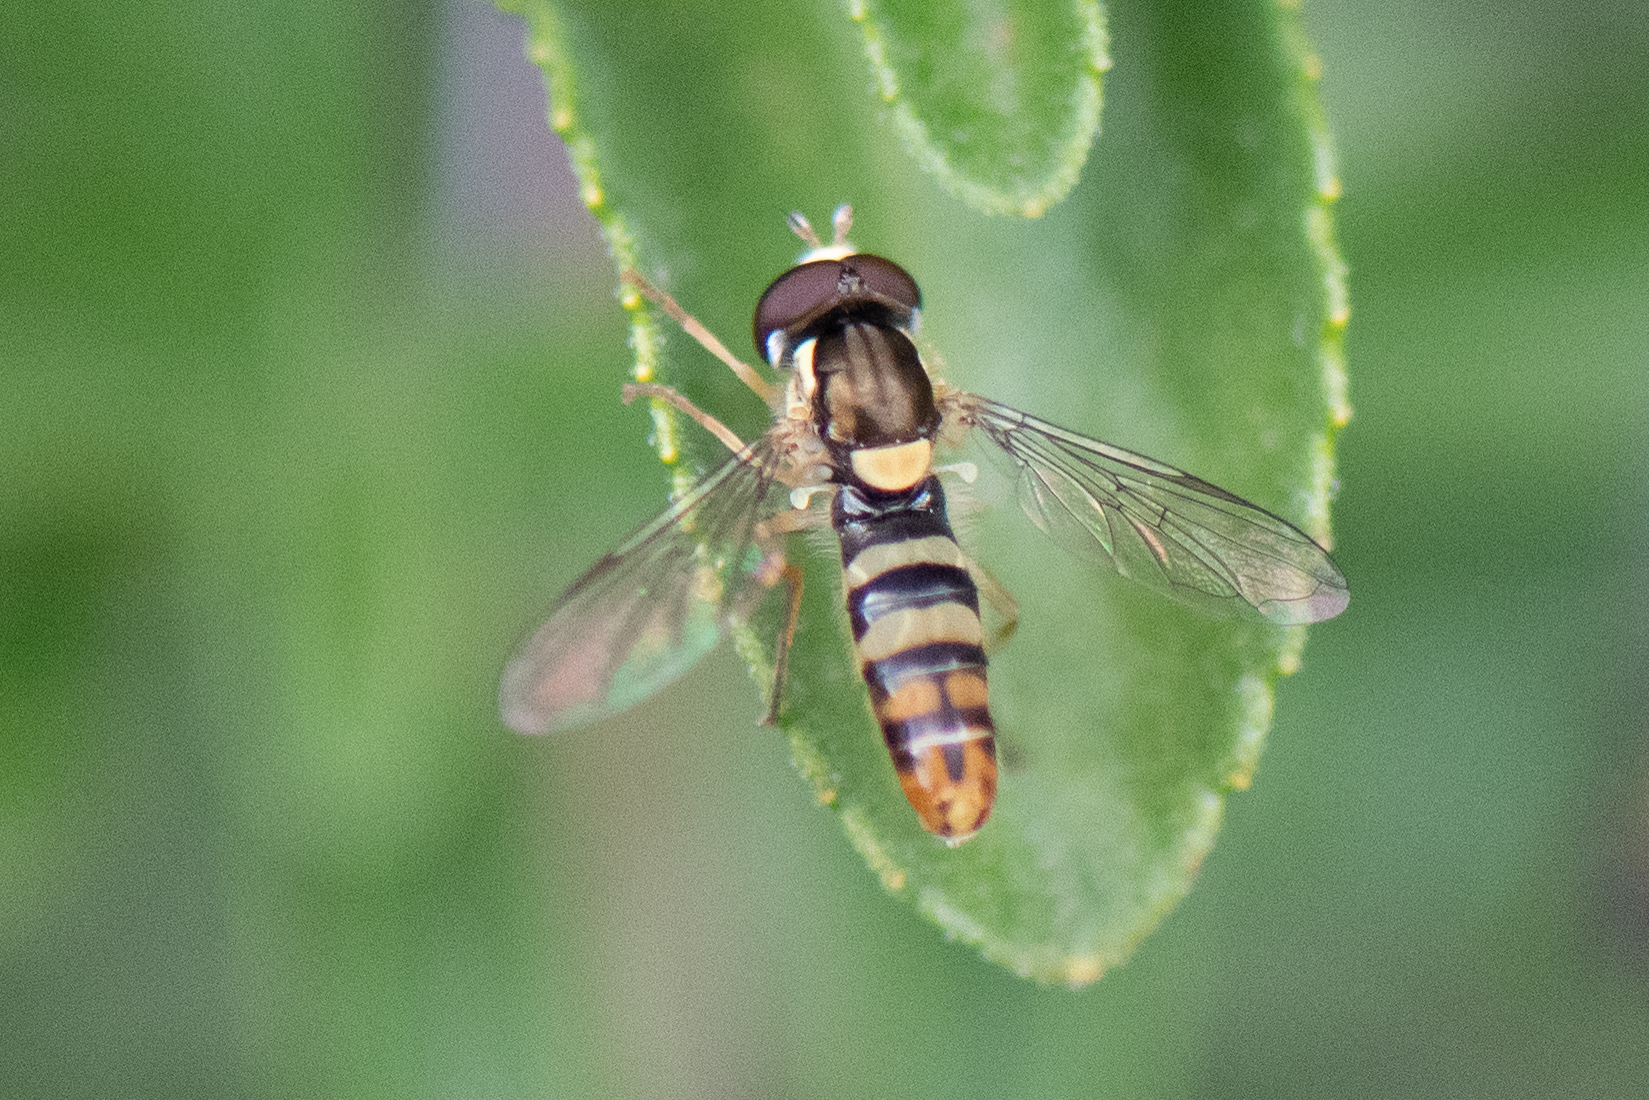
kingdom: Animalia
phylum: Arthropoda
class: Insecta
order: Diptera
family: Syrphidae
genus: Sphaerophoria
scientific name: Sphaerophoria sulphuripes
